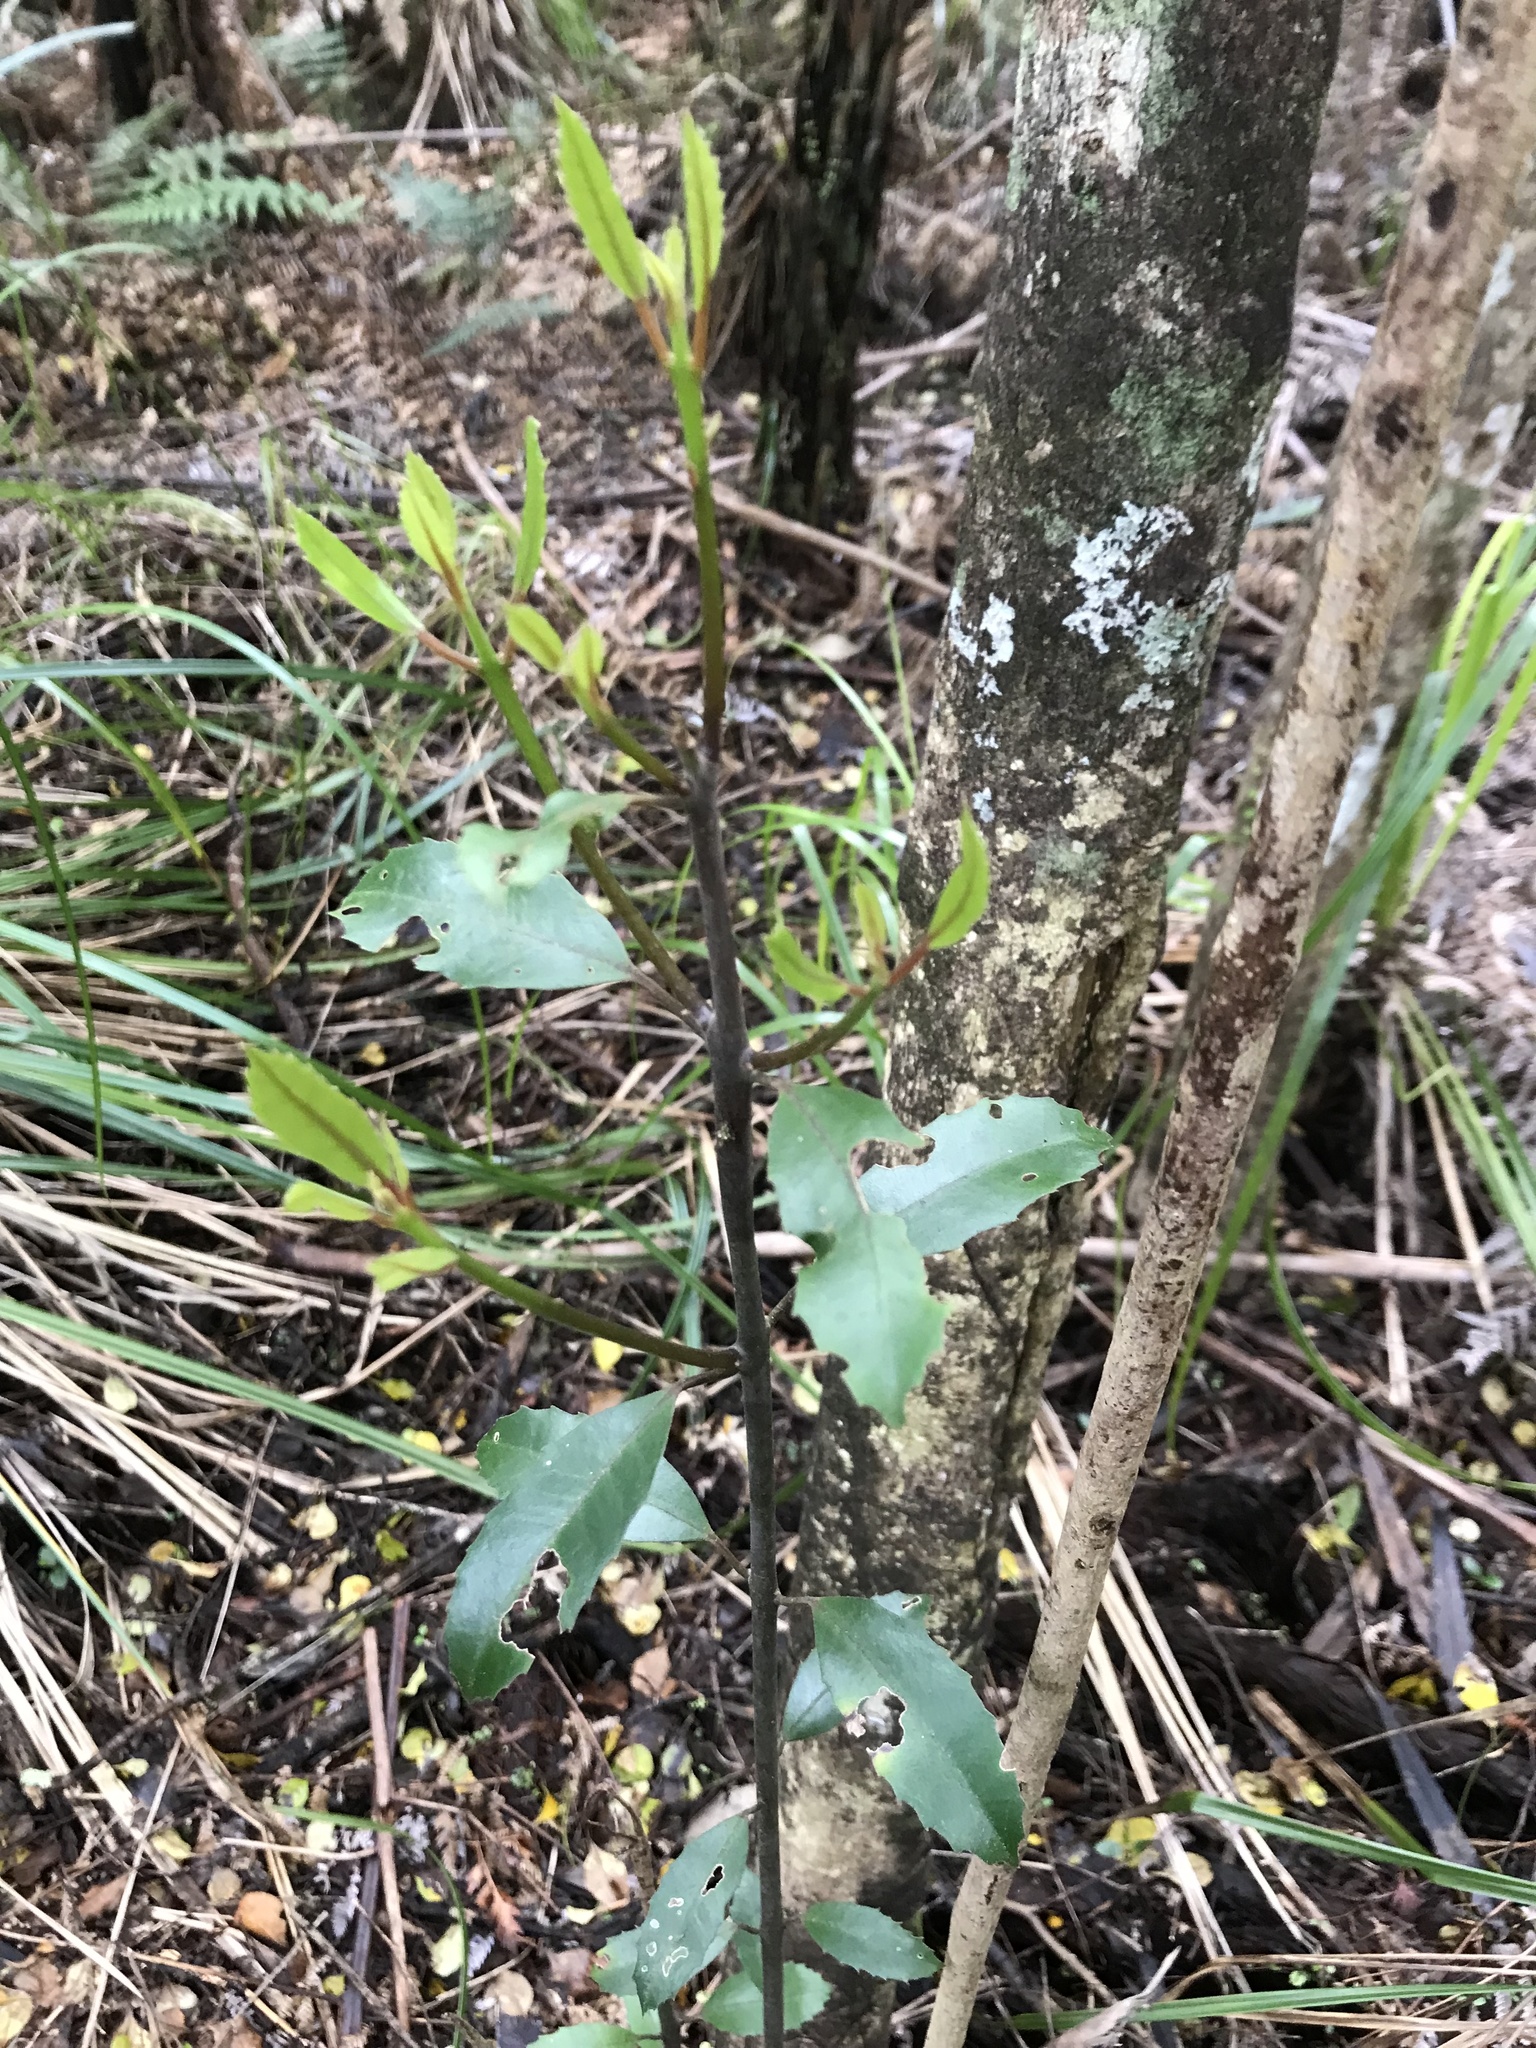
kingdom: Plantae
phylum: Tracheophyta
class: Magnoliopsida
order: Laurales
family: Monimiaceae
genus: Hedycarya
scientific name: Hedycarya arborea
